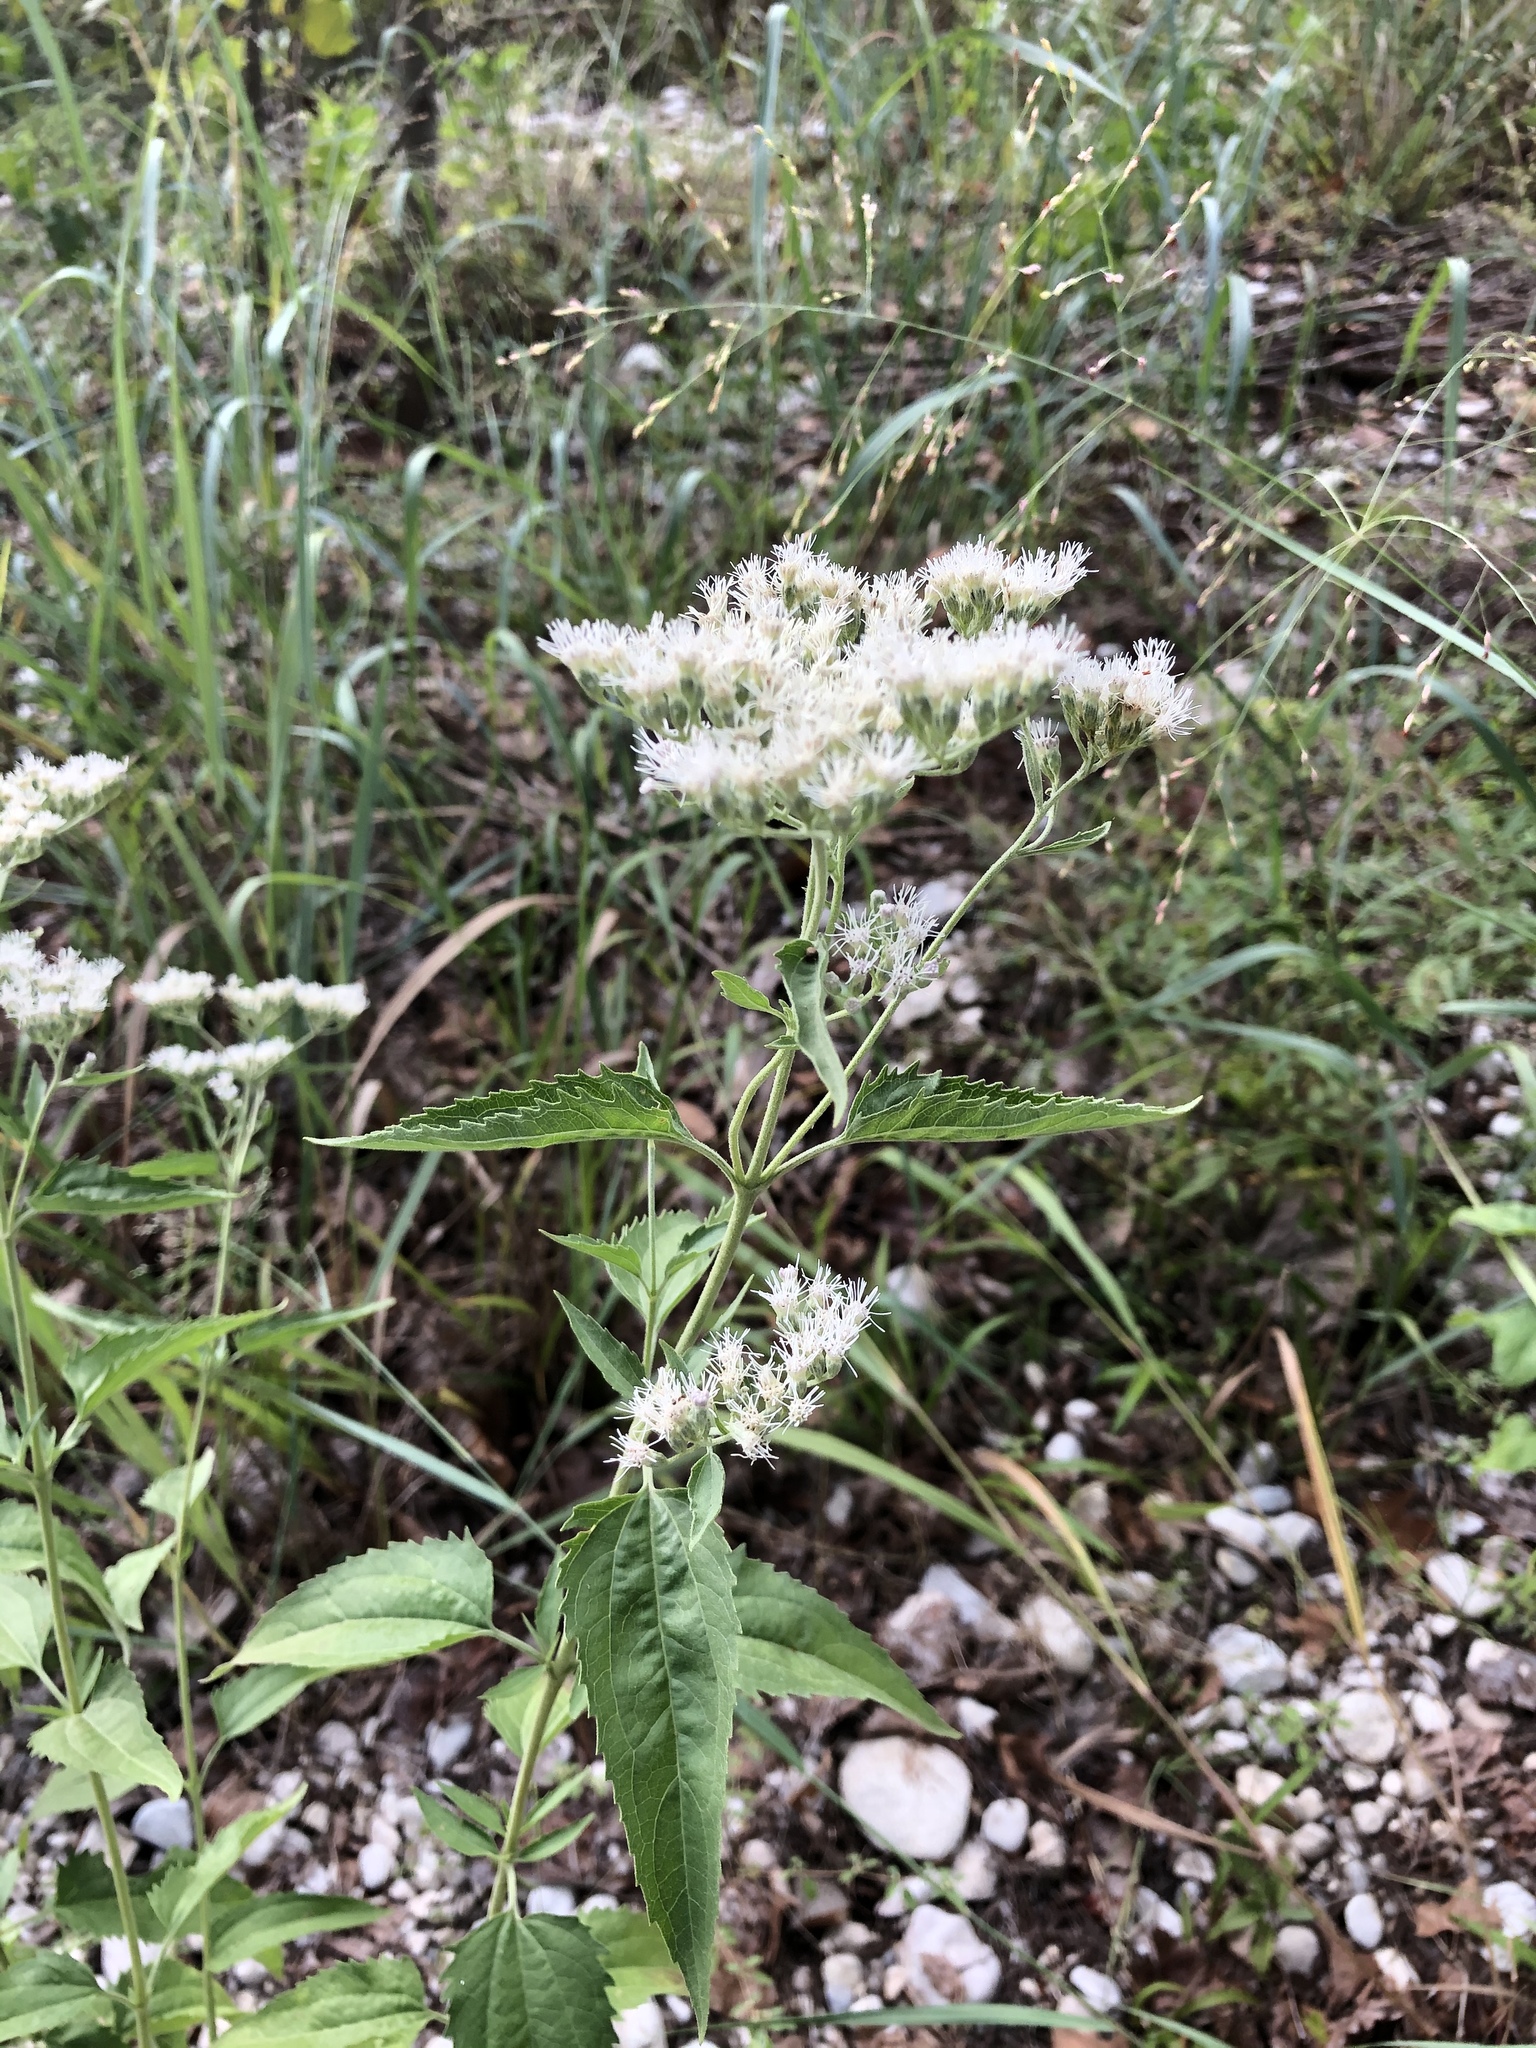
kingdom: Plantae
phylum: Tracheophyta
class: Magnoliopsida
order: Asterales
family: Asteraceae
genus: Eupatorium
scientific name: Eupatorium serotinum
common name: Late boneset
